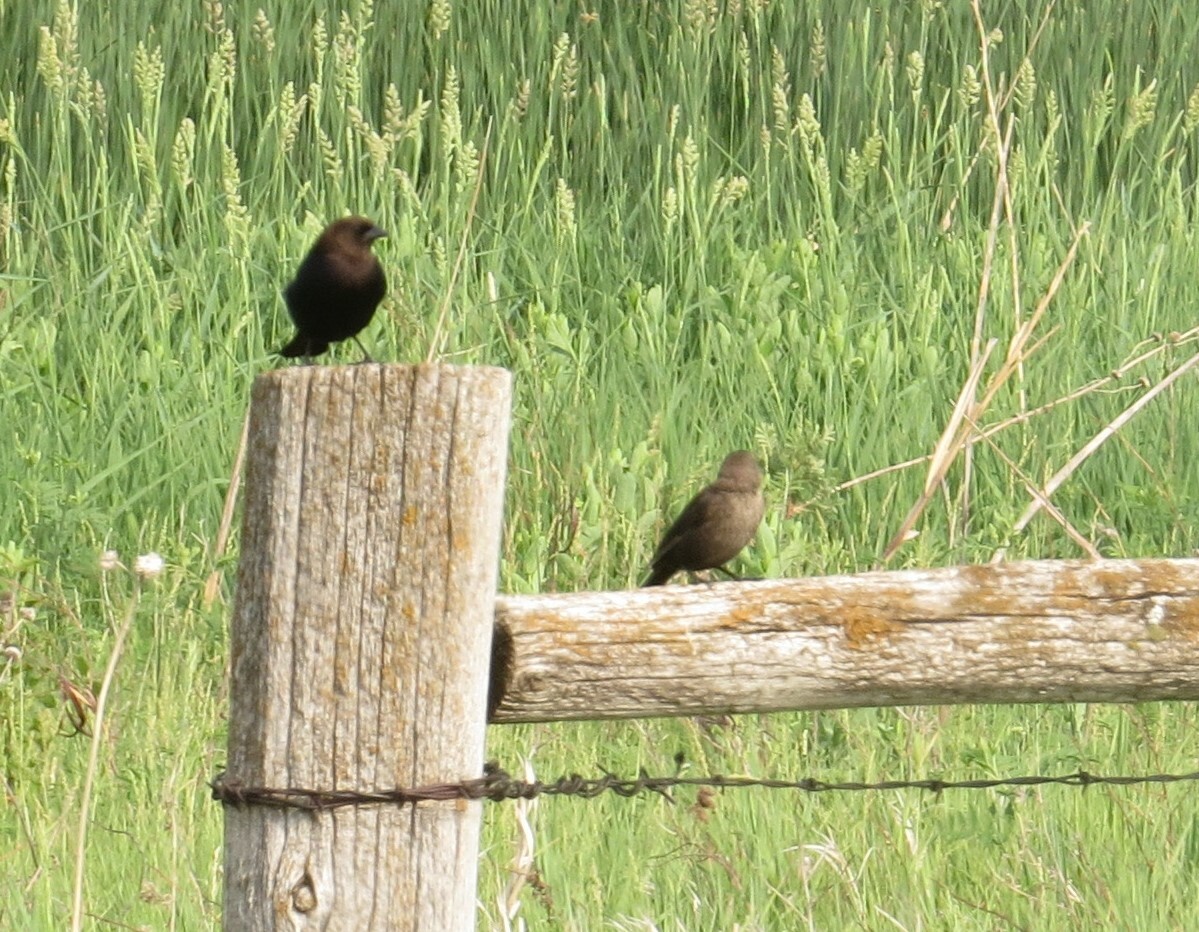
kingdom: Animalia
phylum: Chordata
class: Aves
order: Passeriformes
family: Icteridae
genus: Molothrus
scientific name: Molothrus ater
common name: Brown-headed cowbird
